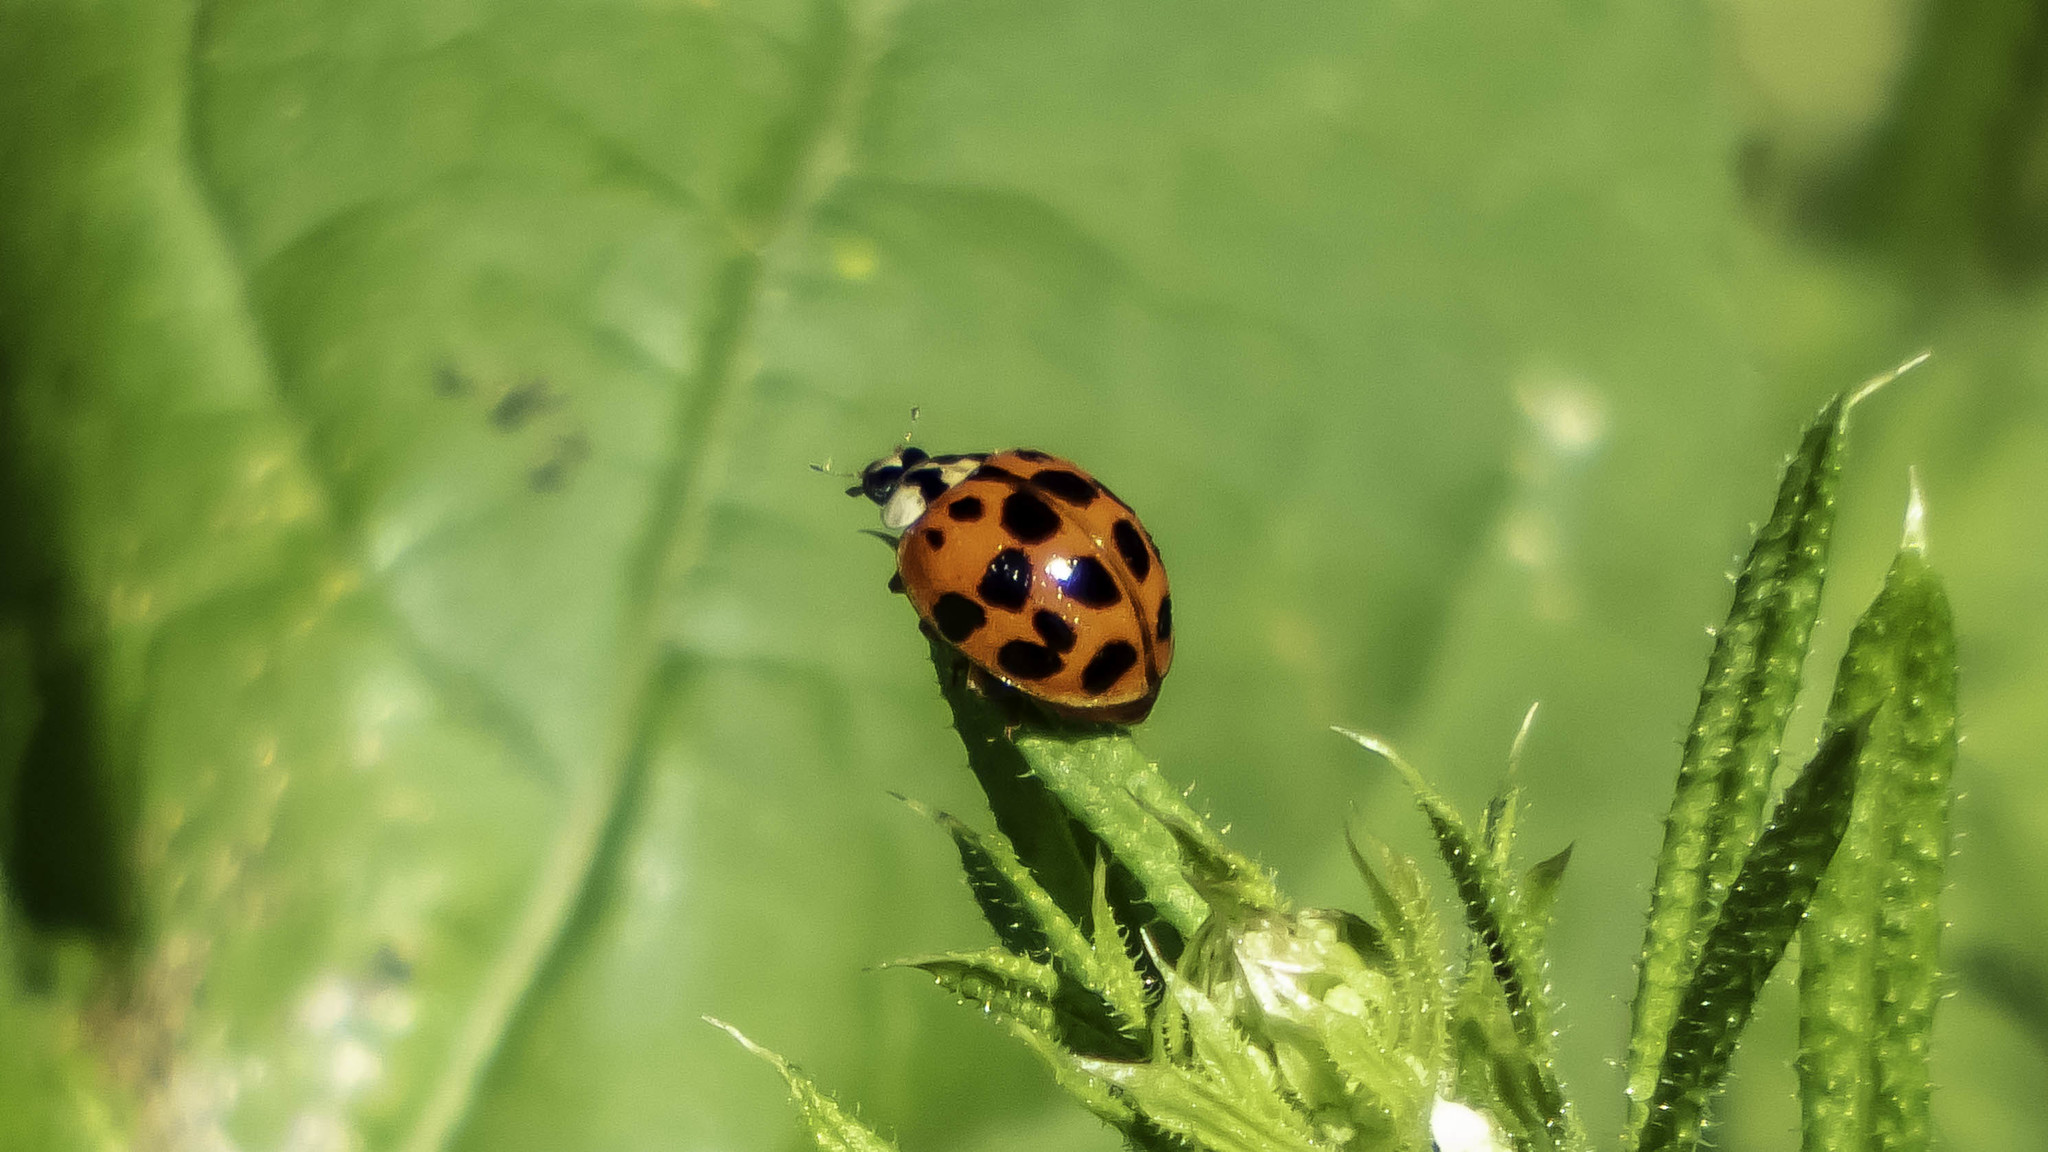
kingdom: Animalia
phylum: Arthropoda
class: Insecta
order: Coleoptera
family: Coccinellidae
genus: Harmonia
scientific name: Harmonia axyridis
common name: Harlequin ladybird
